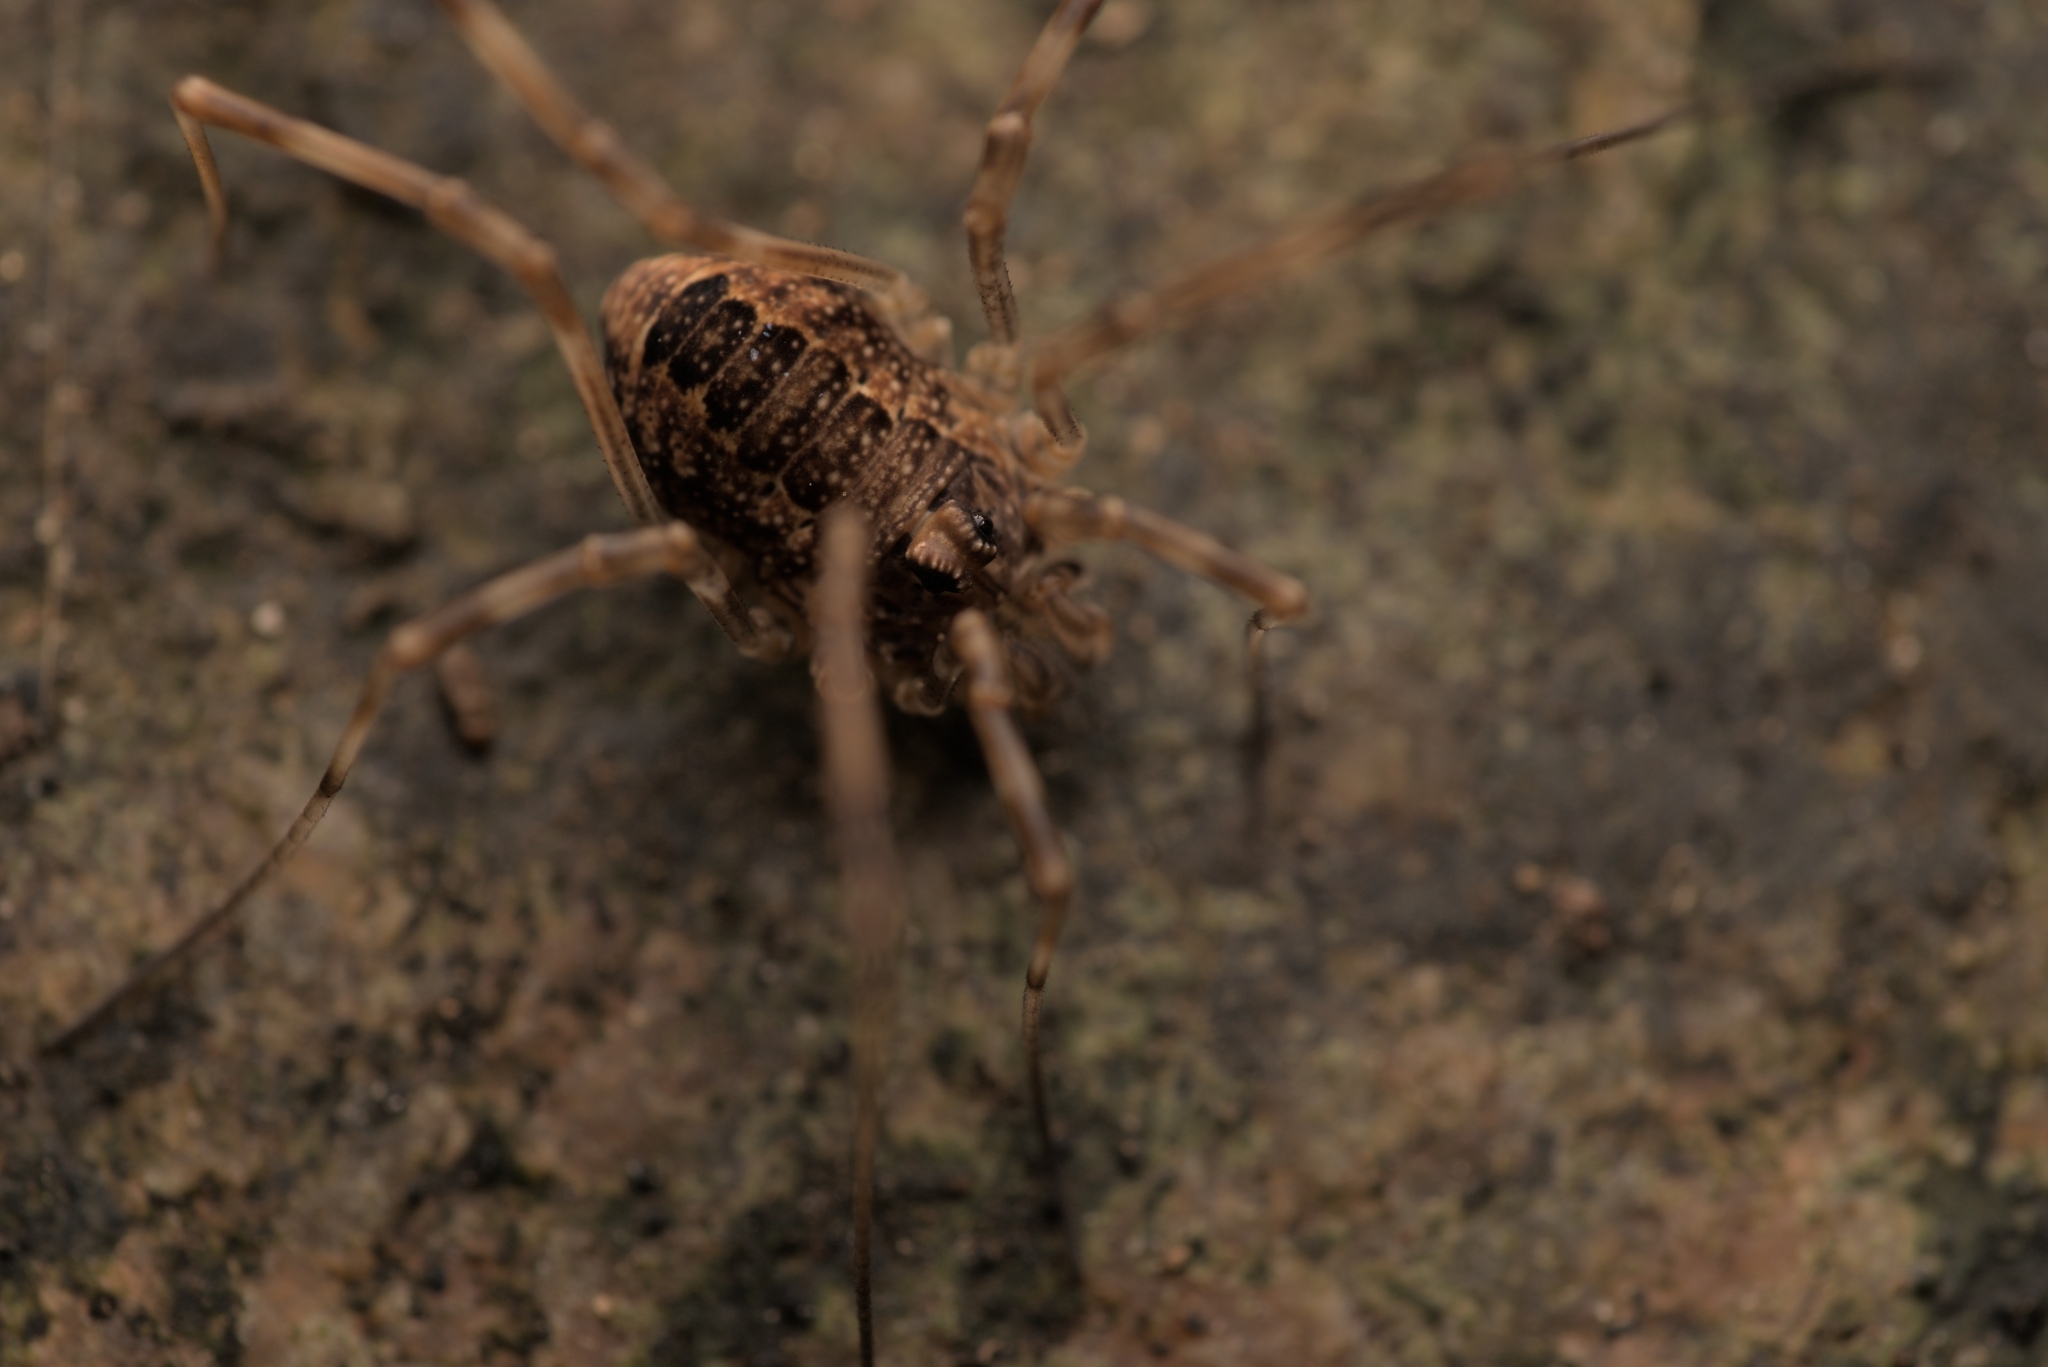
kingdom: Animalia
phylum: Arthropoda
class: Arachnida
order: Opiliones
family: Phalangiidae
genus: Rilaena
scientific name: Rilaena triangularis
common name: Spring harvestman
